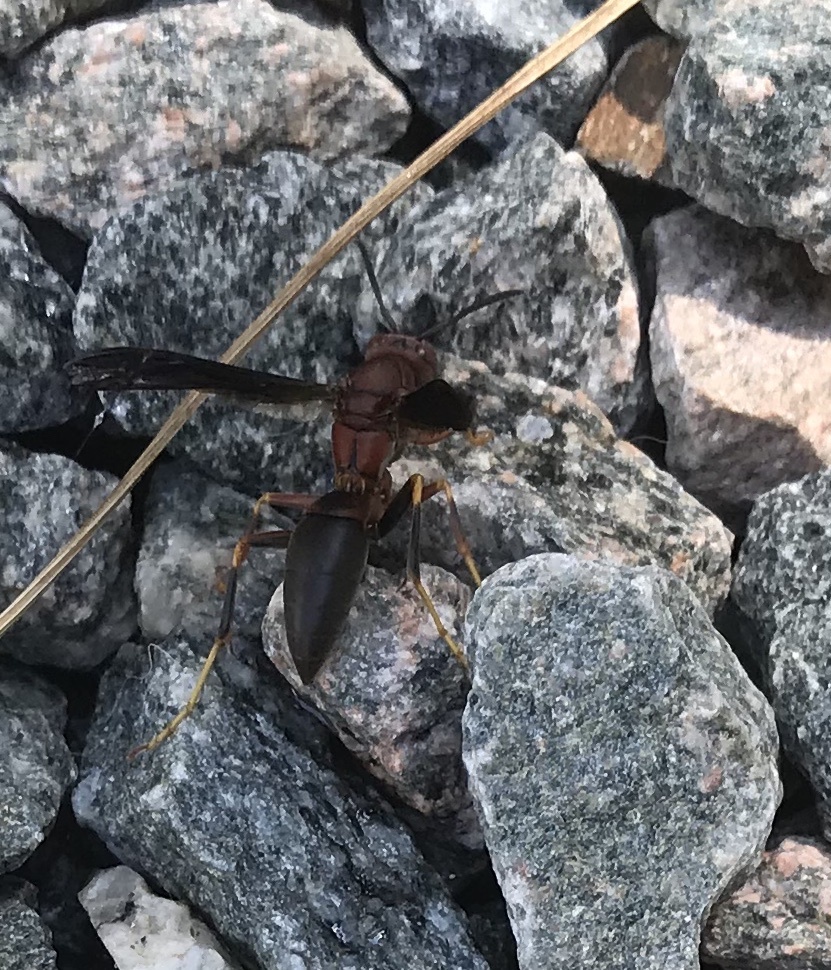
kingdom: Animalia
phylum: Arthropoda
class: Insecta
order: Hymenoptera
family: Eumenidae
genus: Polistes
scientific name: Polistes metricus
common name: Metric paper wasp
